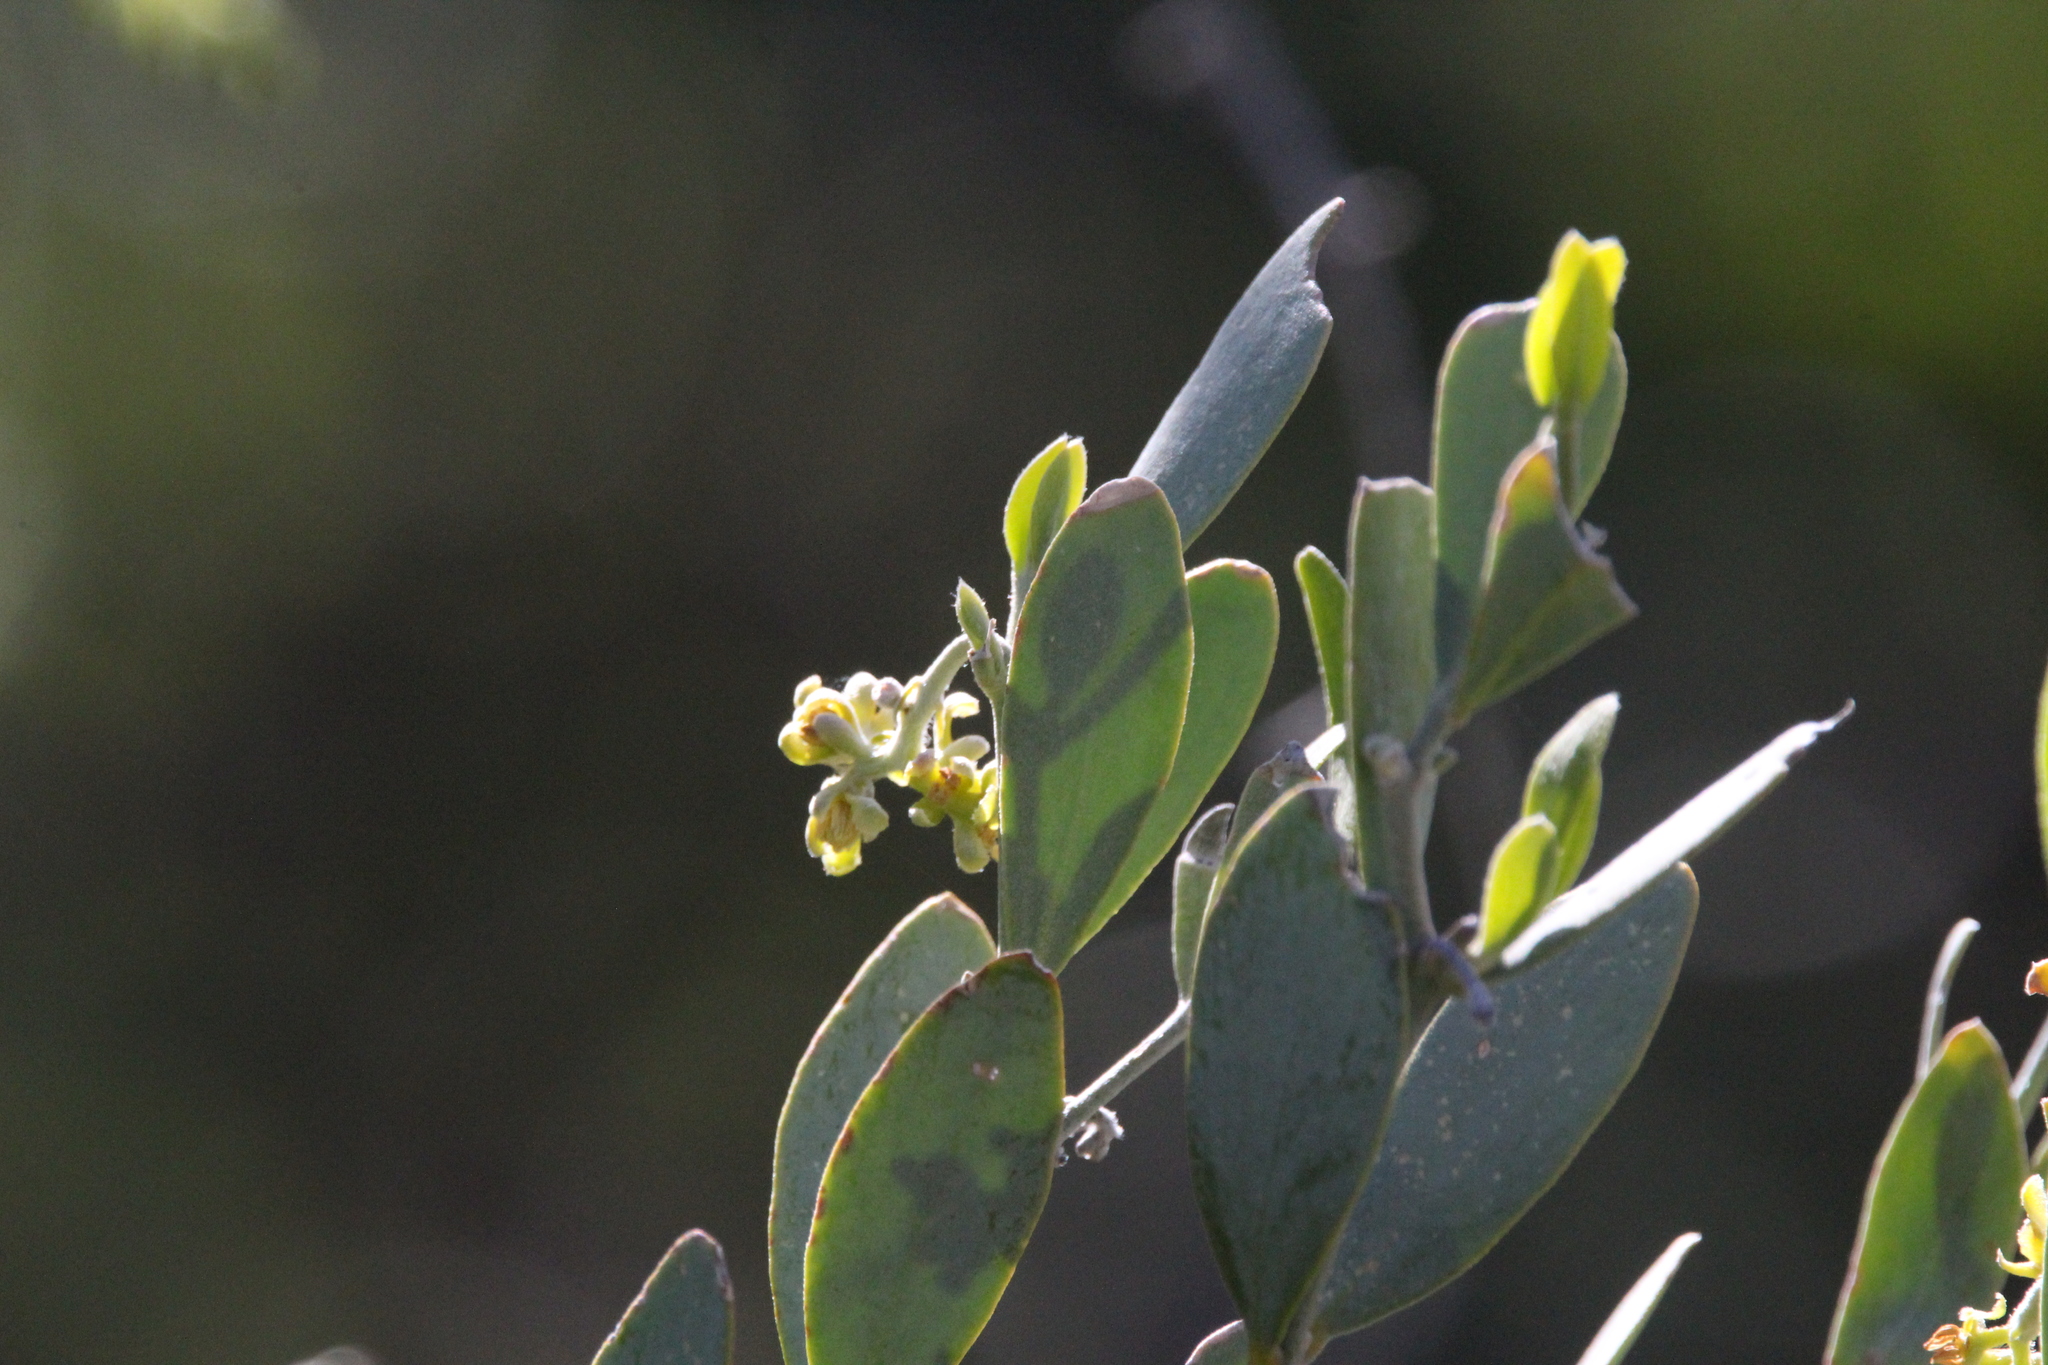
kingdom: Plantae
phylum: Tracheophyta
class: Magnoliopsida
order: Caryophyllales
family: Simmondsiaceae
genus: Simmondsia
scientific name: Simmondsia chinensis
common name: Jojoba
